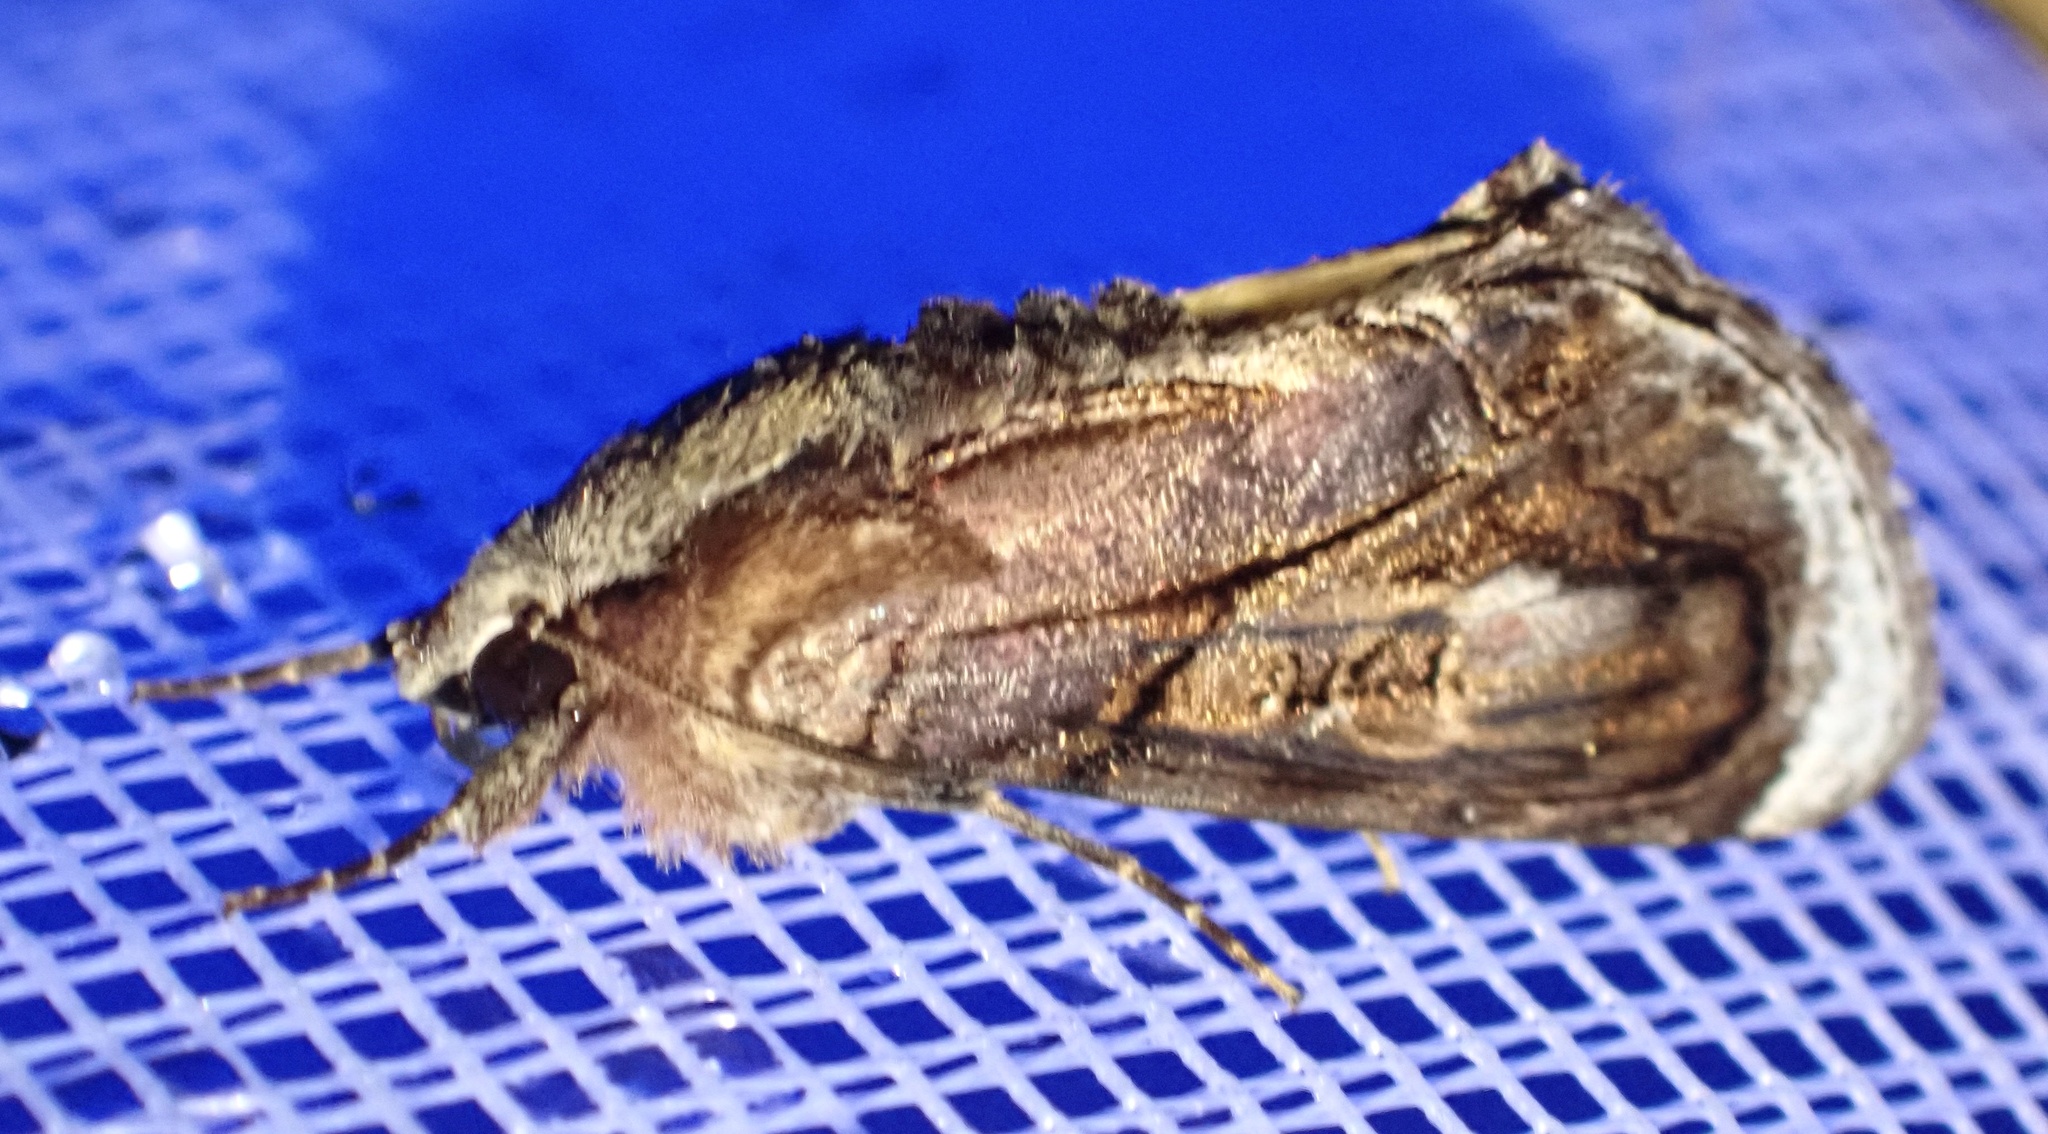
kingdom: Animalia
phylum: Arthropoda
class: Insecta
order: Lepidoptera
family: Noctuidae
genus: Zalissa
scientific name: Zalissa catocalina
